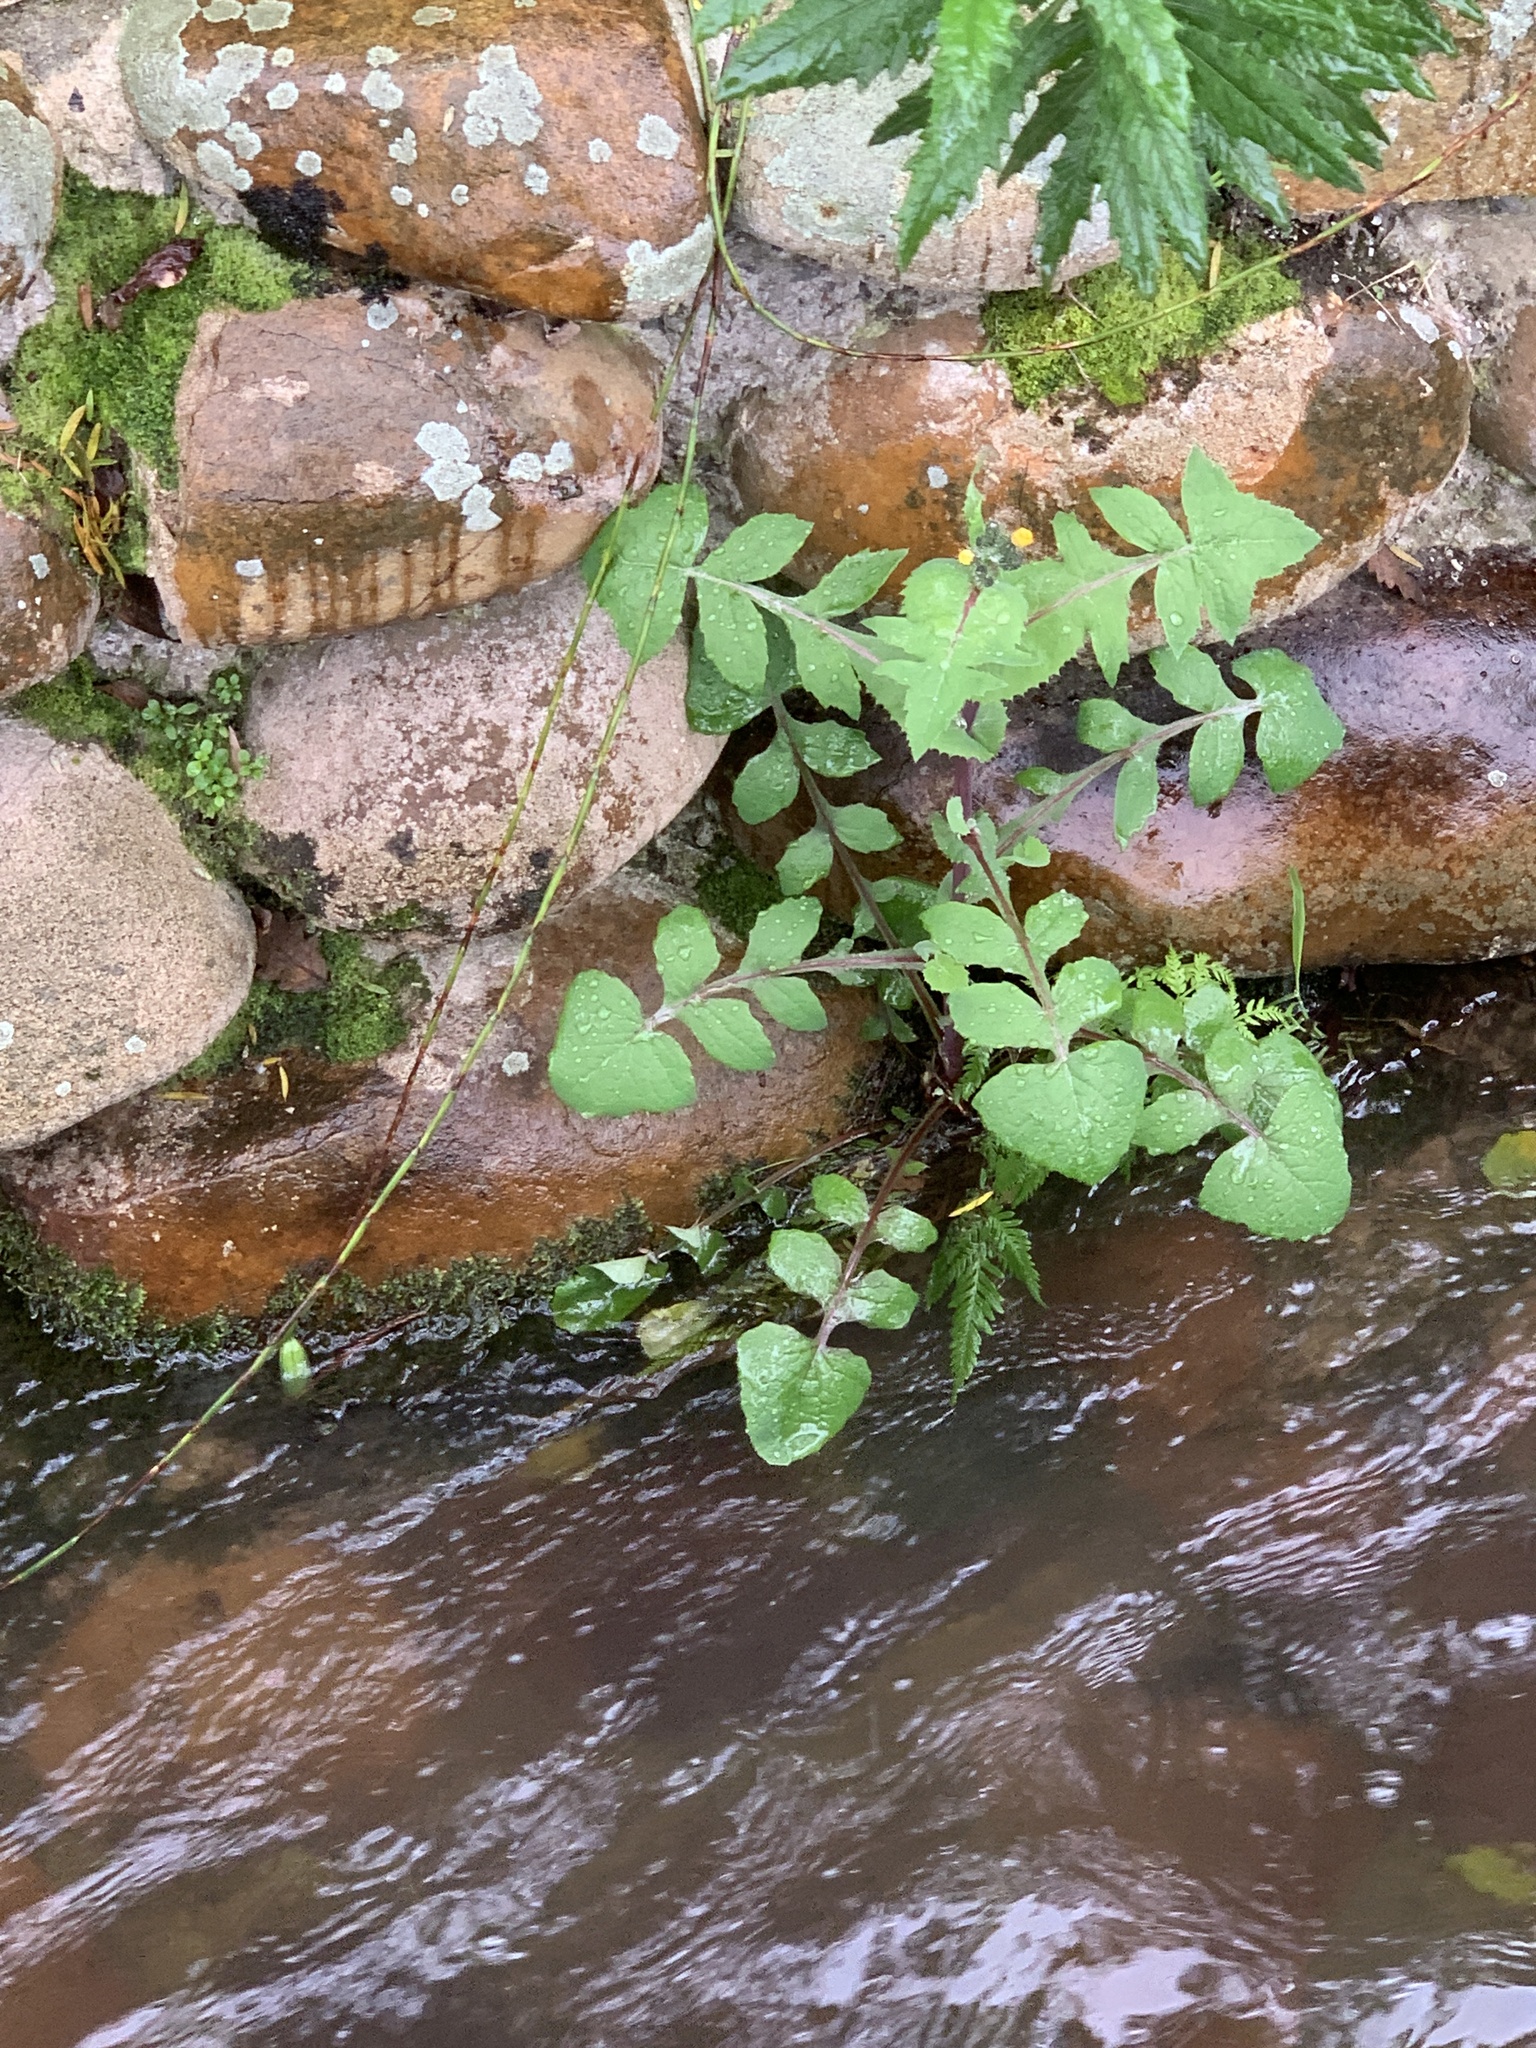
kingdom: Plantae
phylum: Tracheophyta
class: Magnoliopsida
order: Asterales
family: Asteraceae
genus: Sonchus
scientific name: Sonchus oleraceus
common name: Common sowthistle
